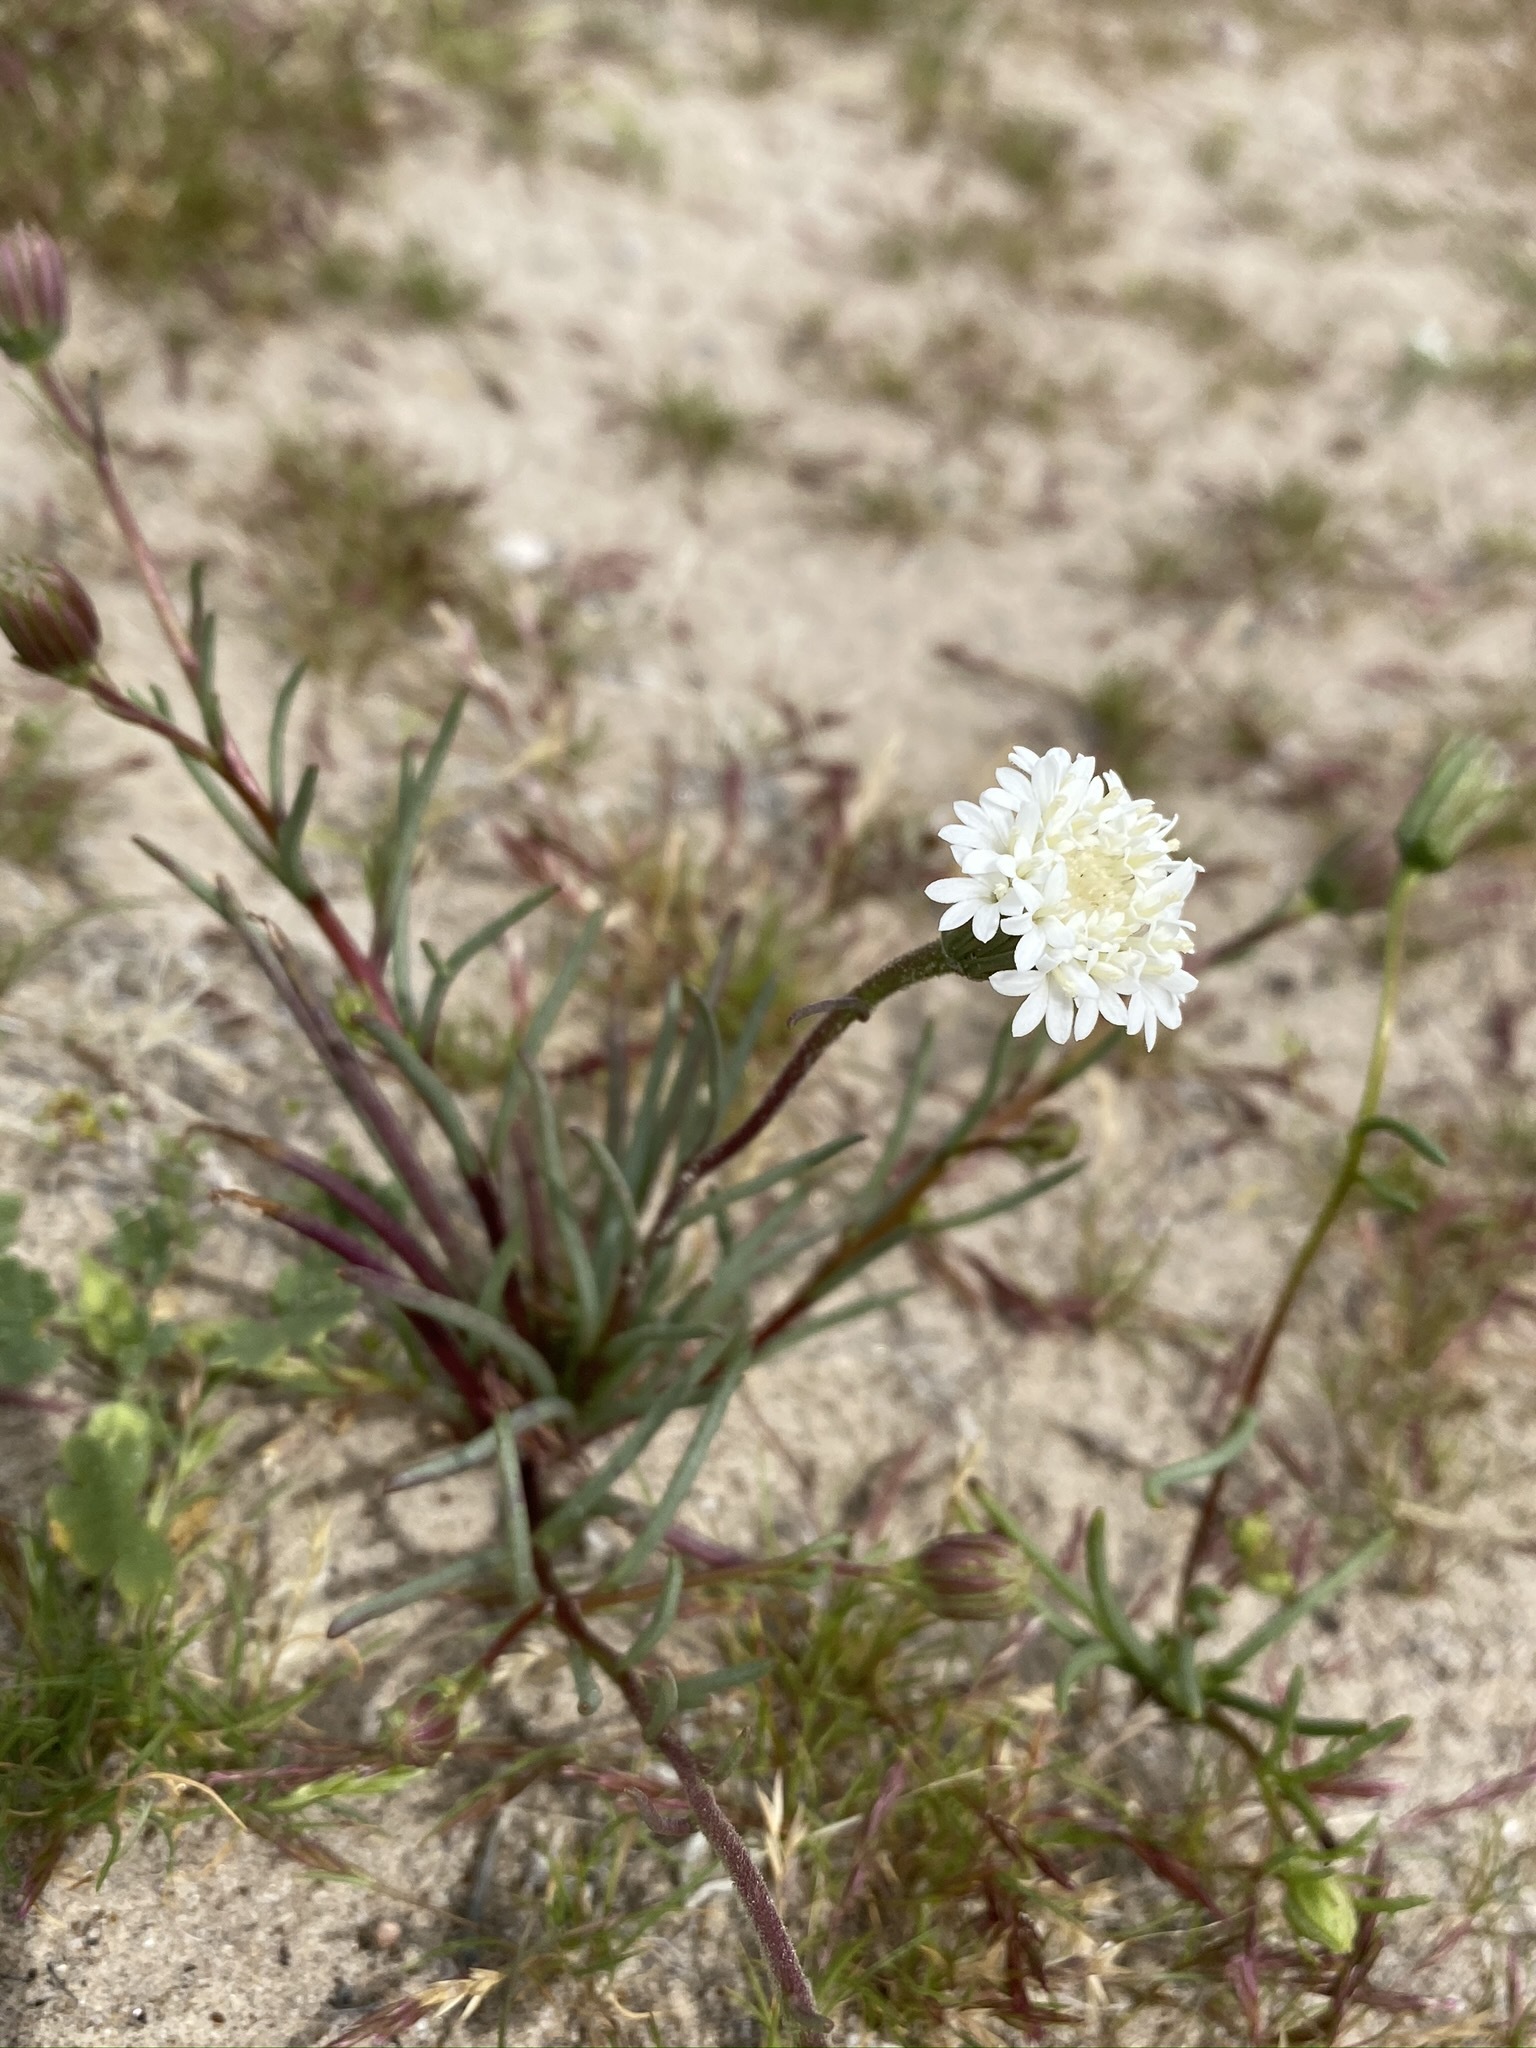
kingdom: Plantae
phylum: Tracheophyta
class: Magnoliopsida
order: Asterales
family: Asteraceae
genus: Chaenactis
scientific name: Chaenactis fremontii
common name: Fremont pincushion
